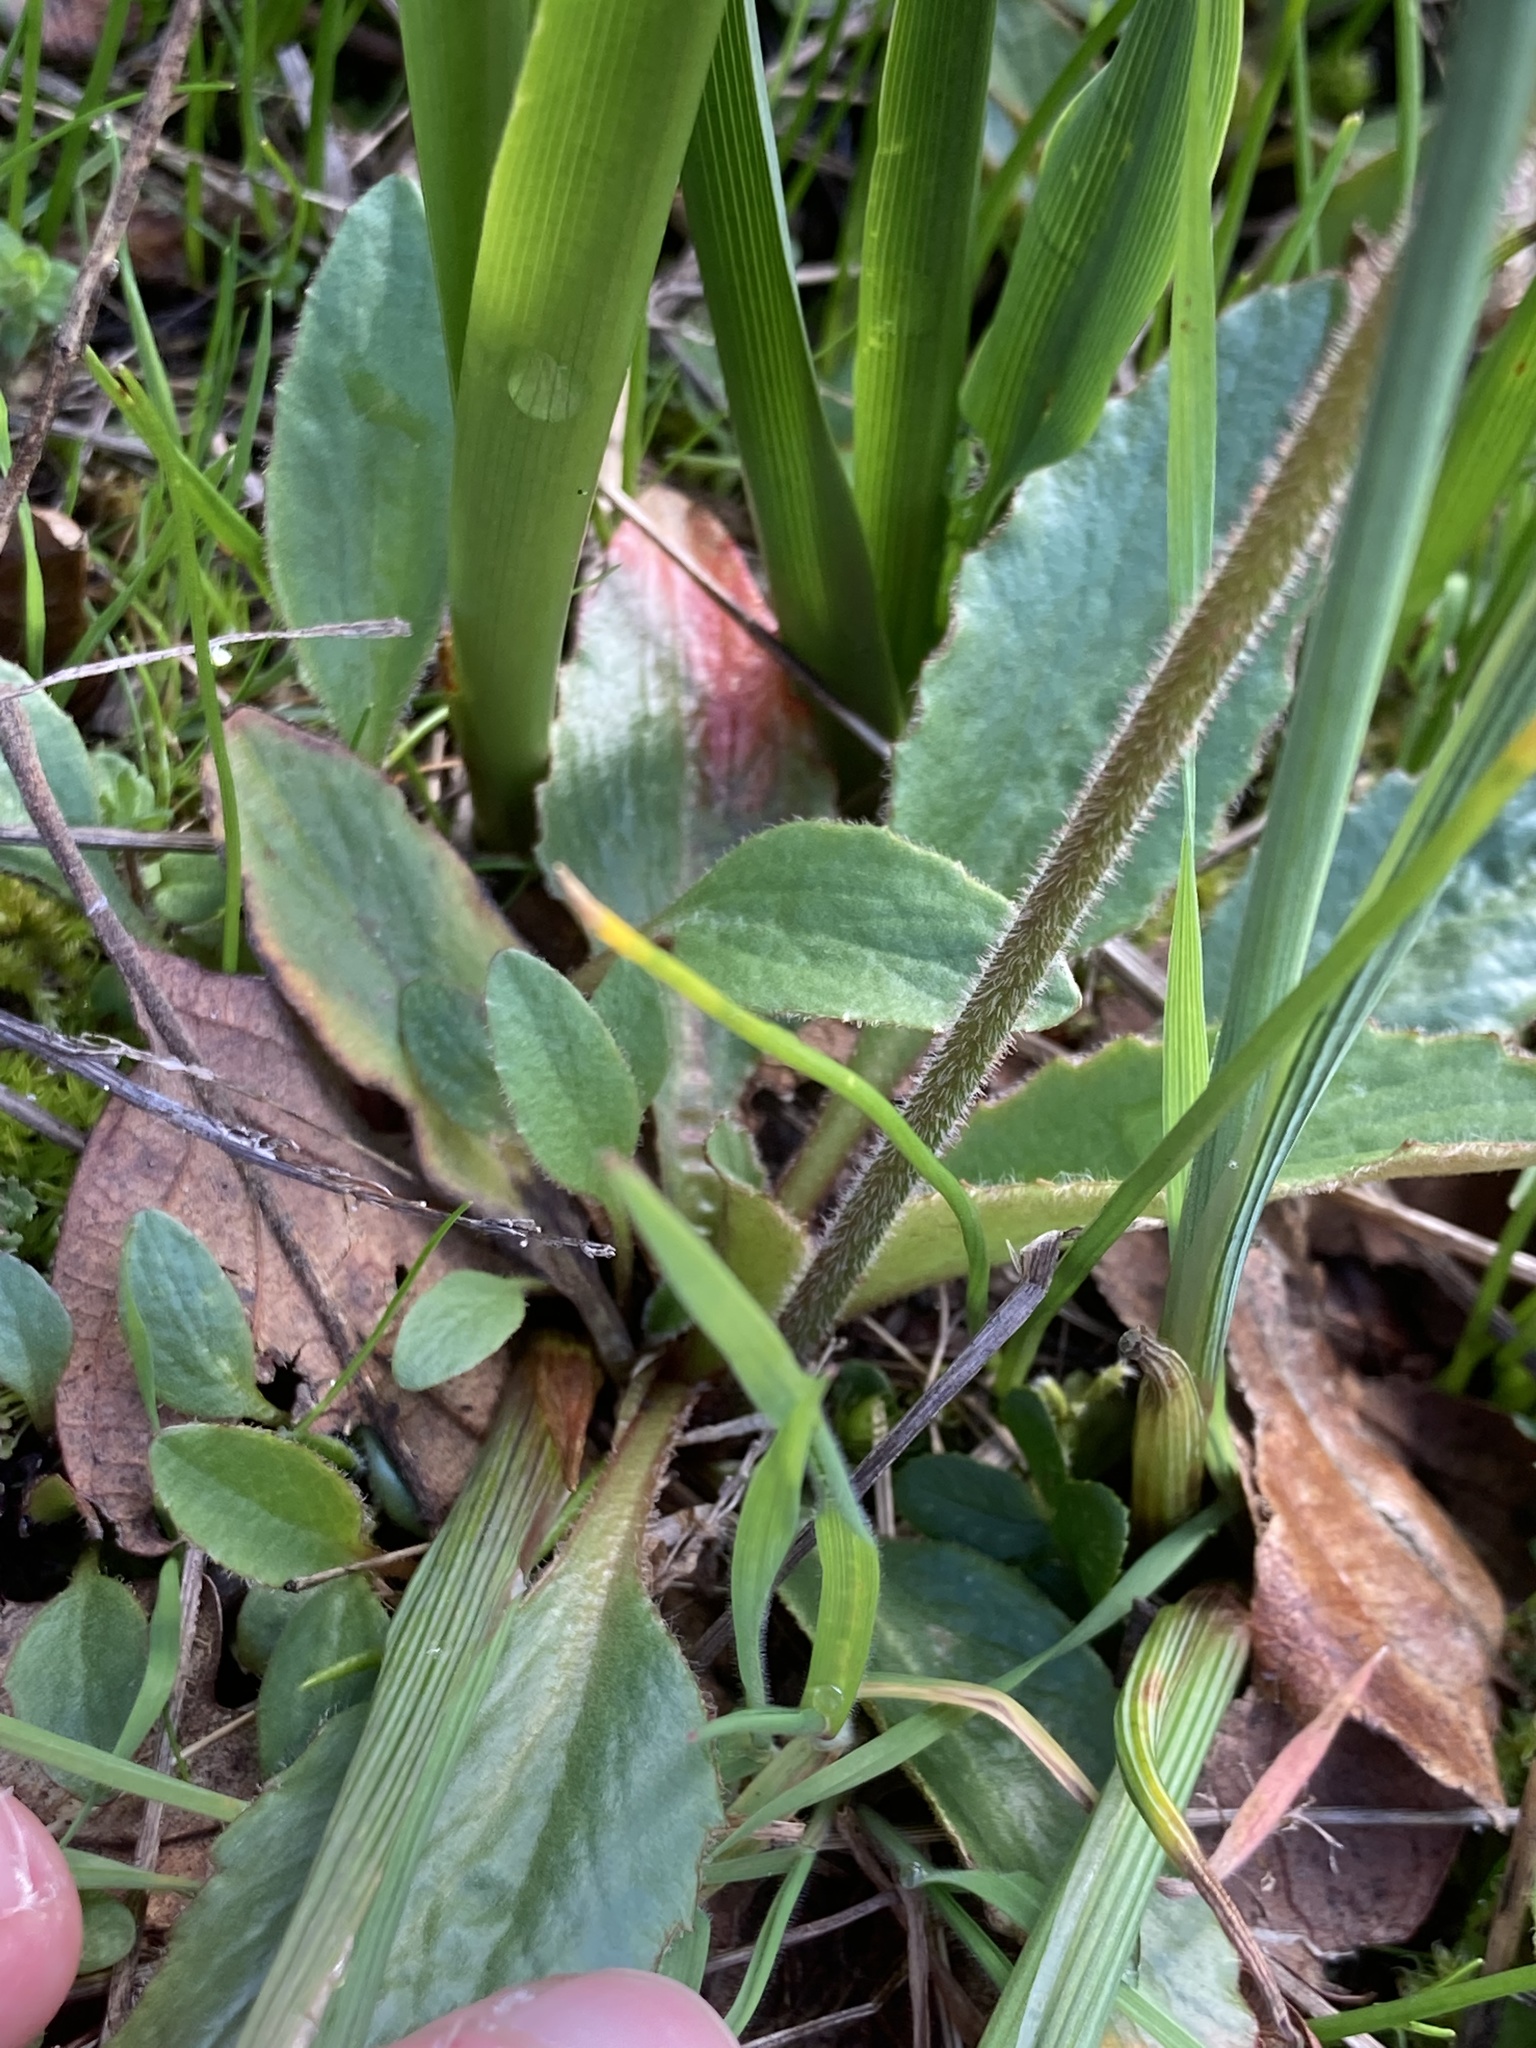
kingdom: Plantae
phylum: Tracheophyta
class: Magnoliopsida
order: Saxifragales
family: Saxifragaceae
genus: Micranthes
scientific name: Micranthes integrifolia
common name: Wholeleaf saxifrage
